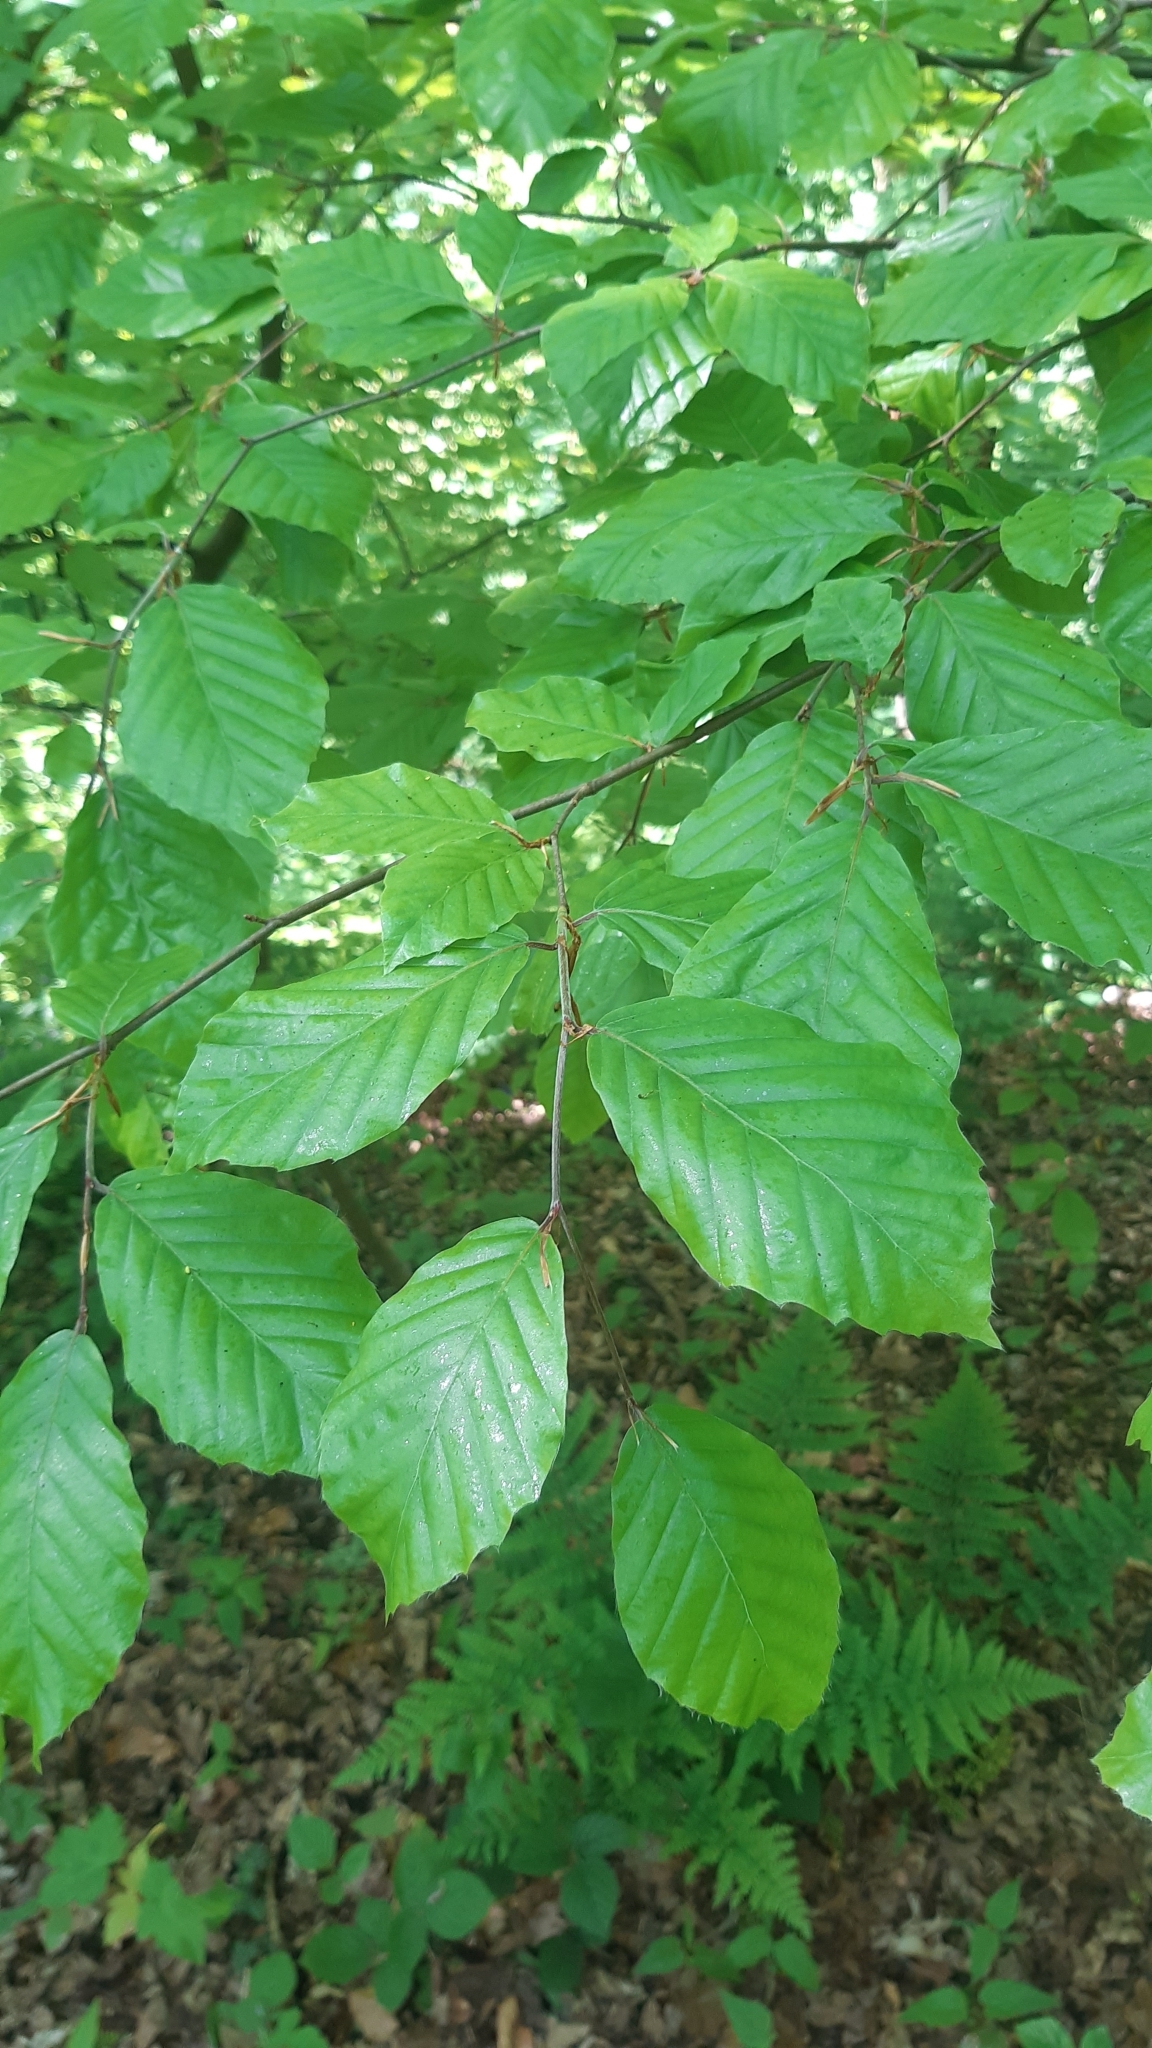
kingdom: Plantae
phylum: Tracheophyta
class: Magnoliopsida
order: Fagales
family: Fagaceae
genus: Fagus
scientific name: Fagus sylvatica
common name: Beech
